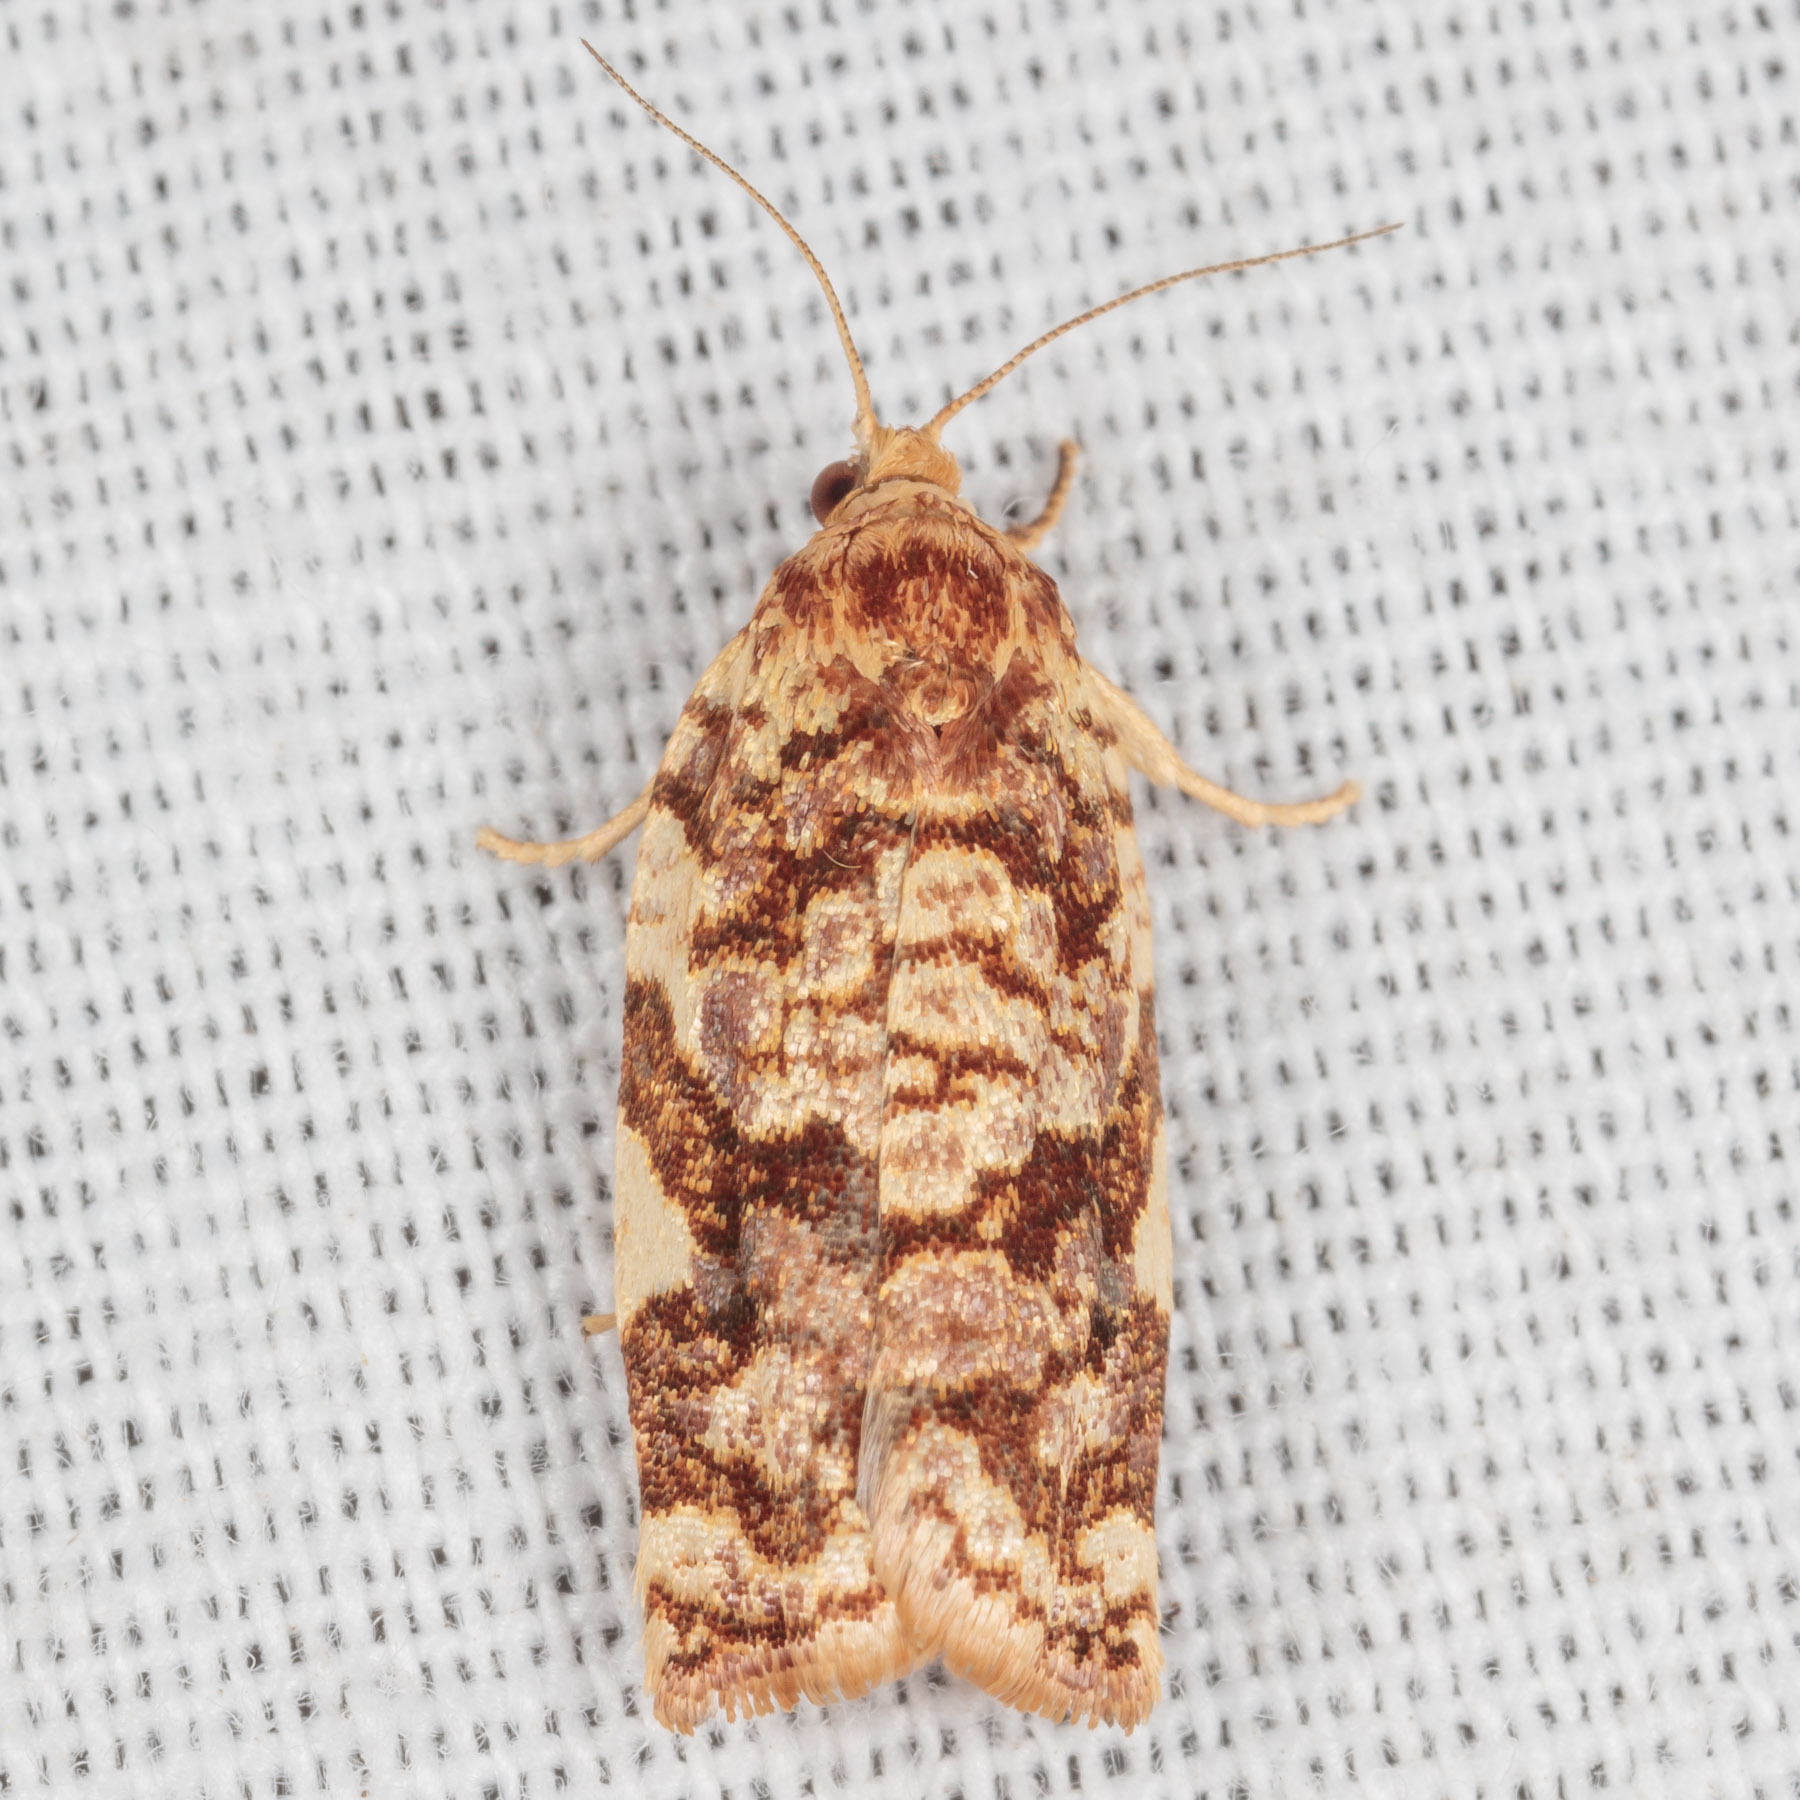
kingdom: Animalia
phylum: Arthropoda
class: Insecta
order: Lepidoptera
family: Tortricidae
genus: Archips
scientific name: Archips argyrospila
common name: Fruit-tree leafroller moth
